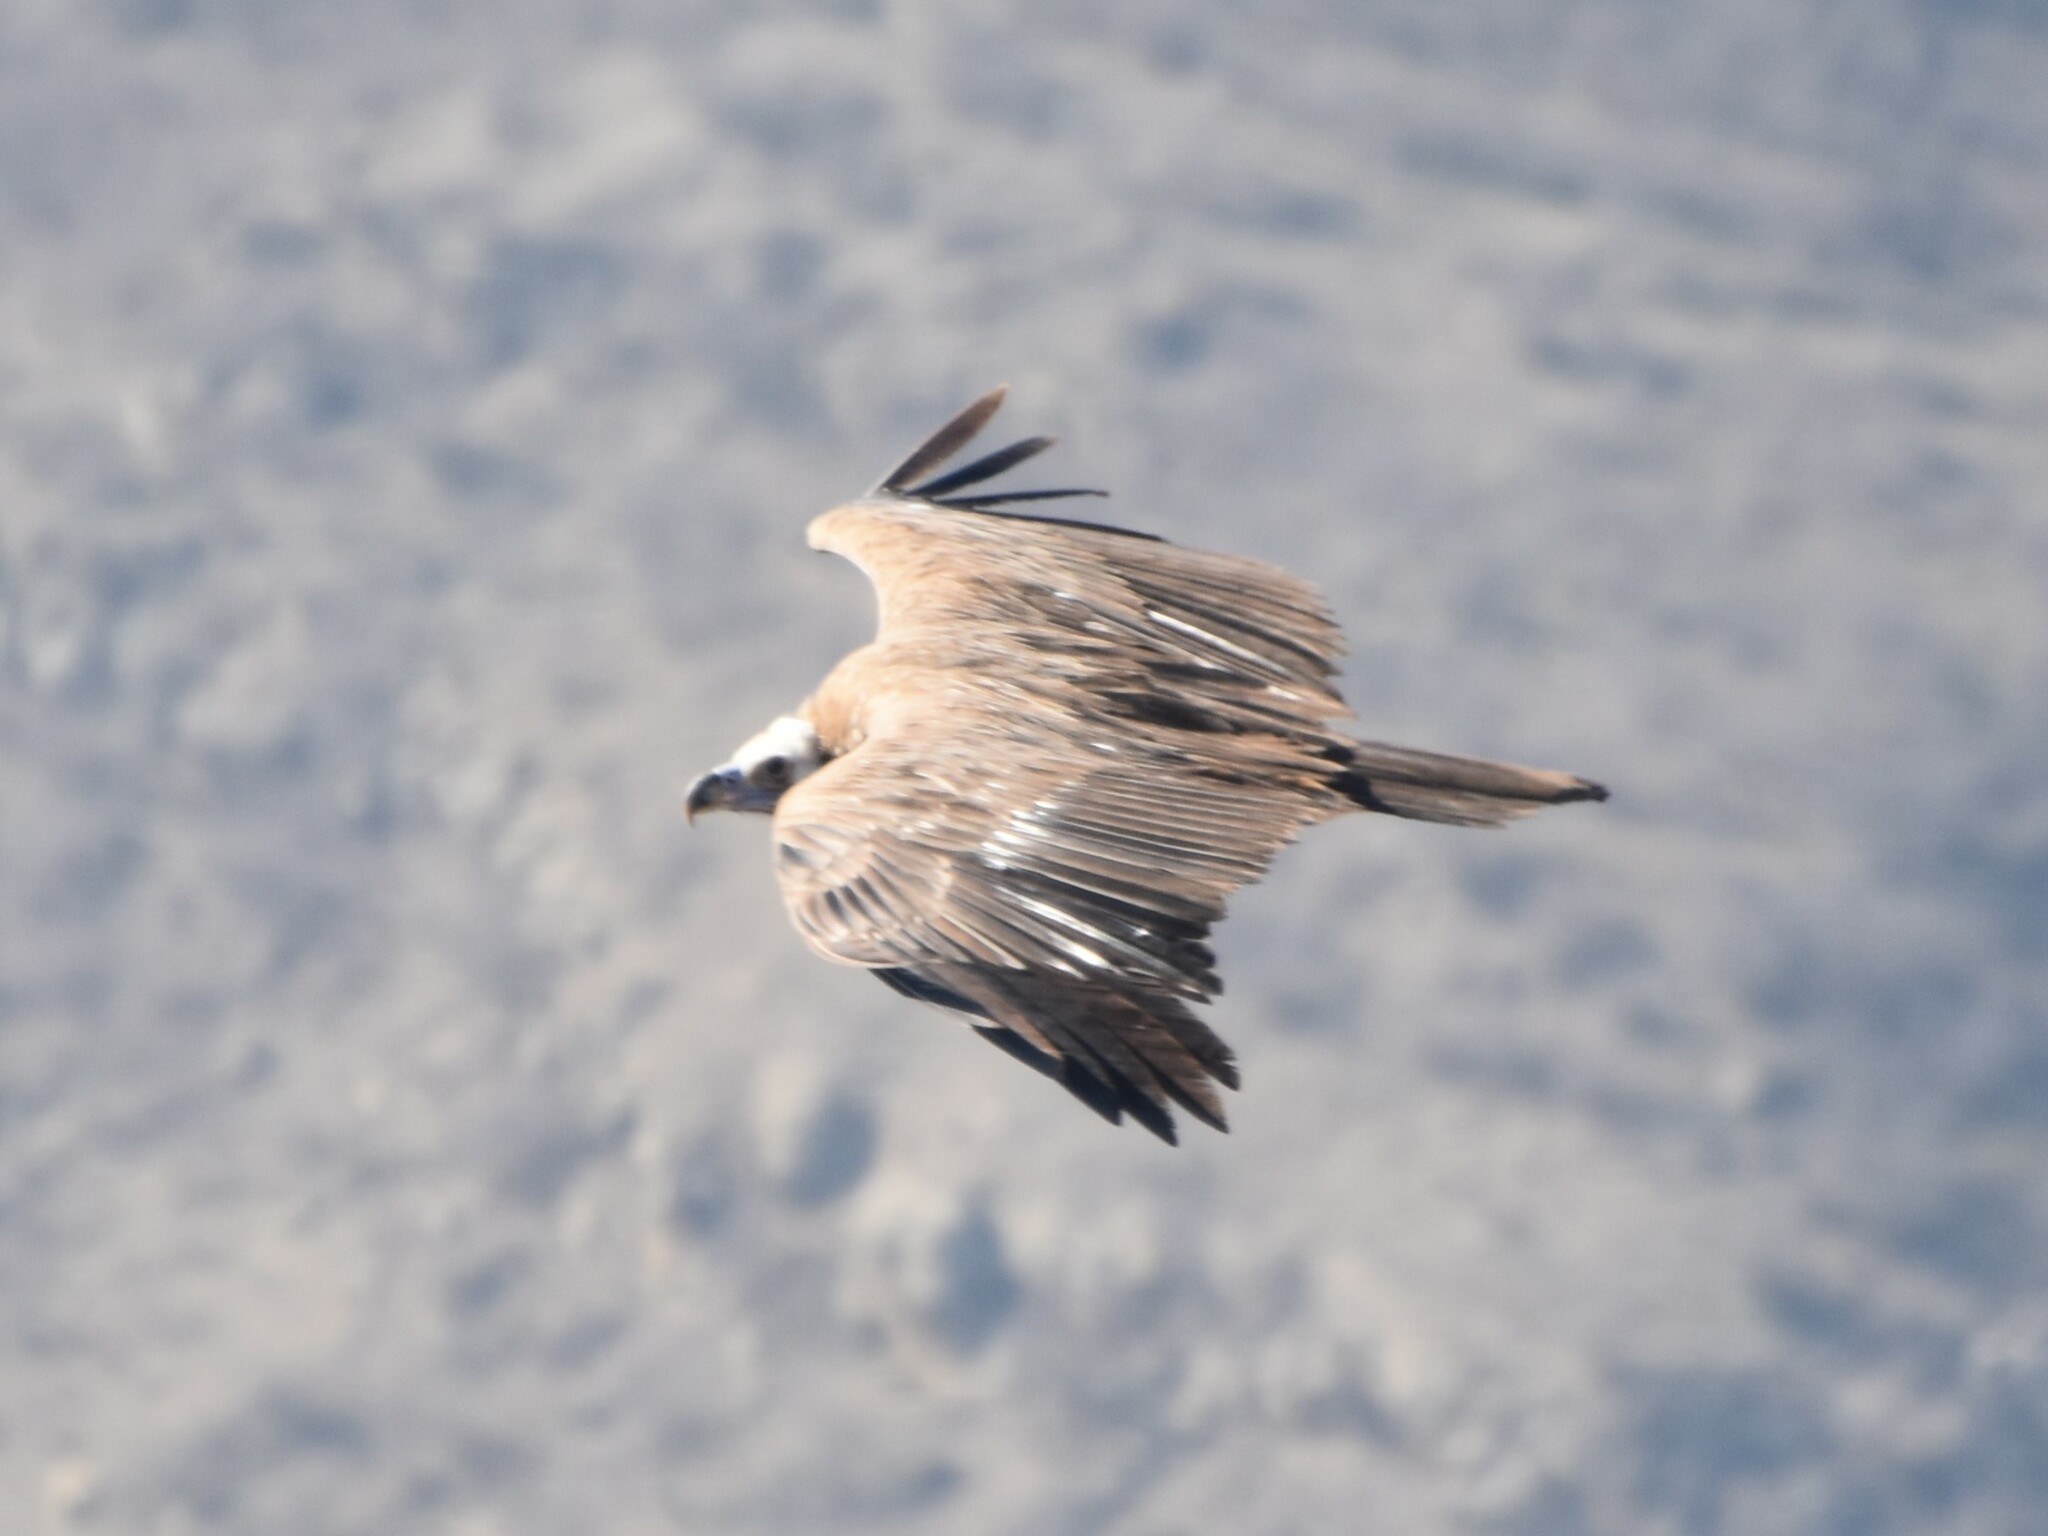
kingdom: Animalia
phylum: Chordata
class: Aves
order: Accipitriformes
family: Accipitridae
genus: Gyps
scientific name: Gyps fulvus
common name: Griffon vulture
